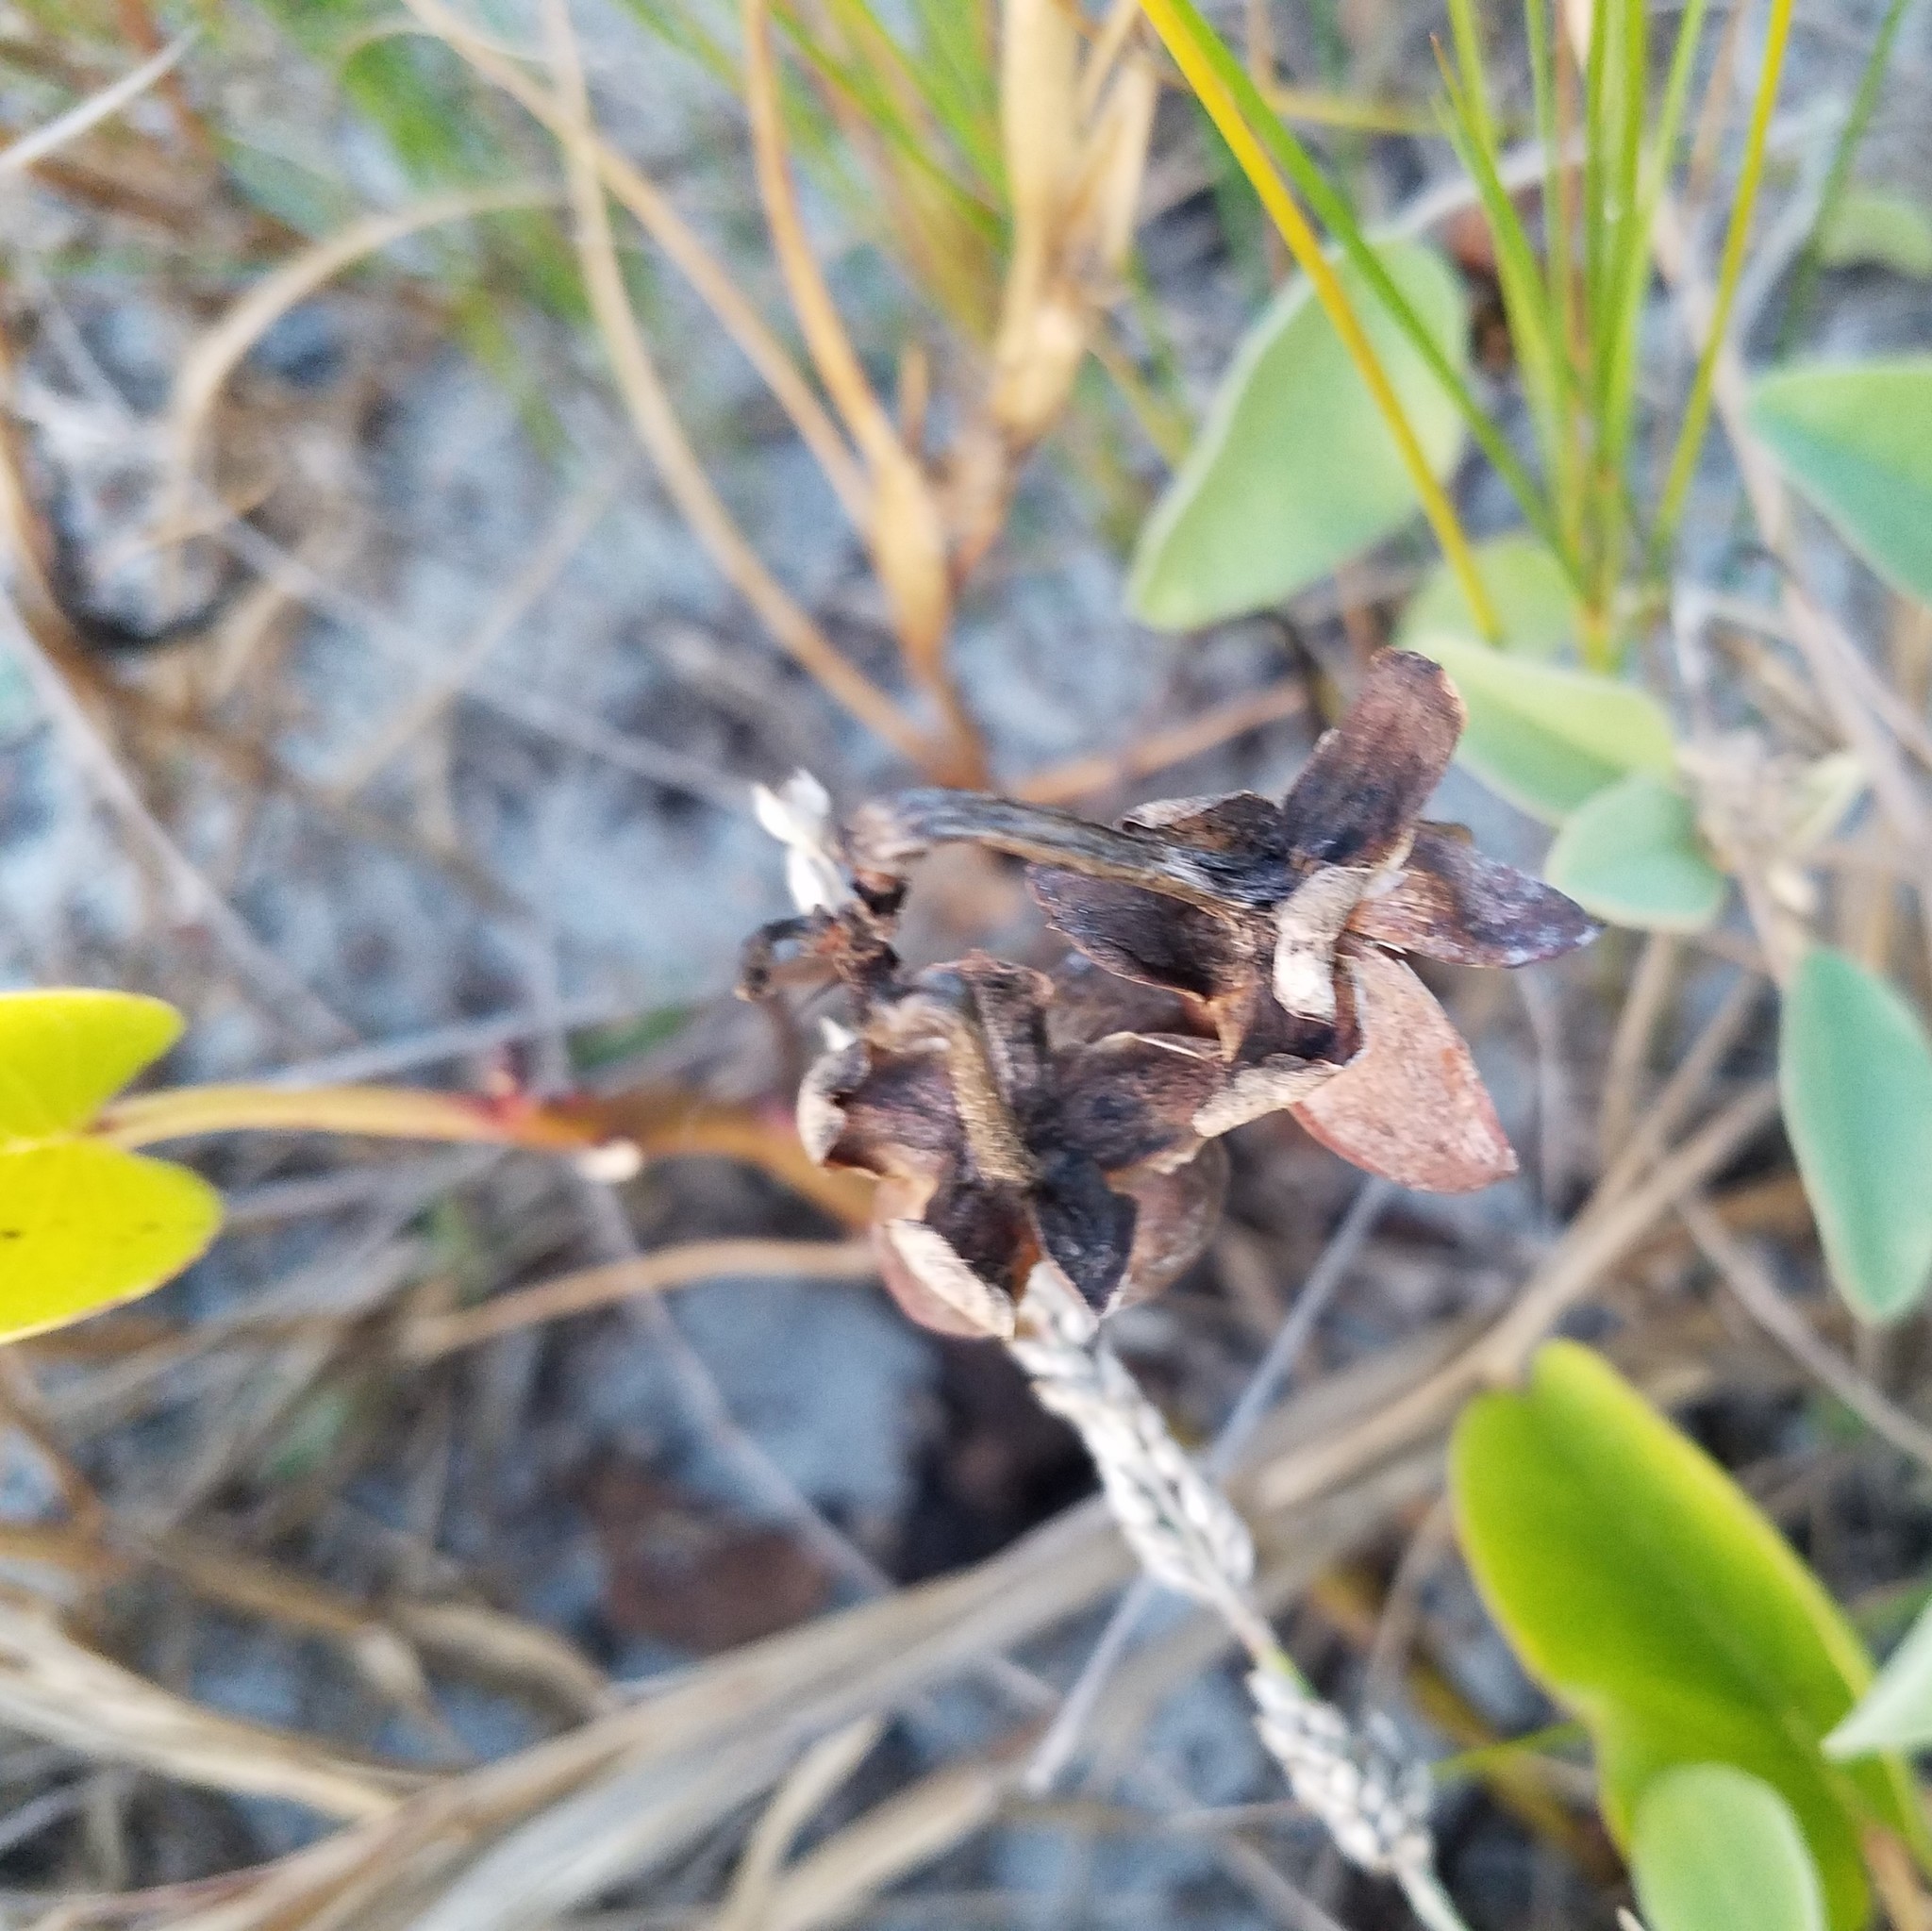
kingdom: Plantae
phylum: Tracheophyta
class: Magnoliopsida
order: Solanales
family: Convolvulaceae
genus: Ipomoea
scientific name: Ipomoea pes-caprae
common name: Beach morning glory
